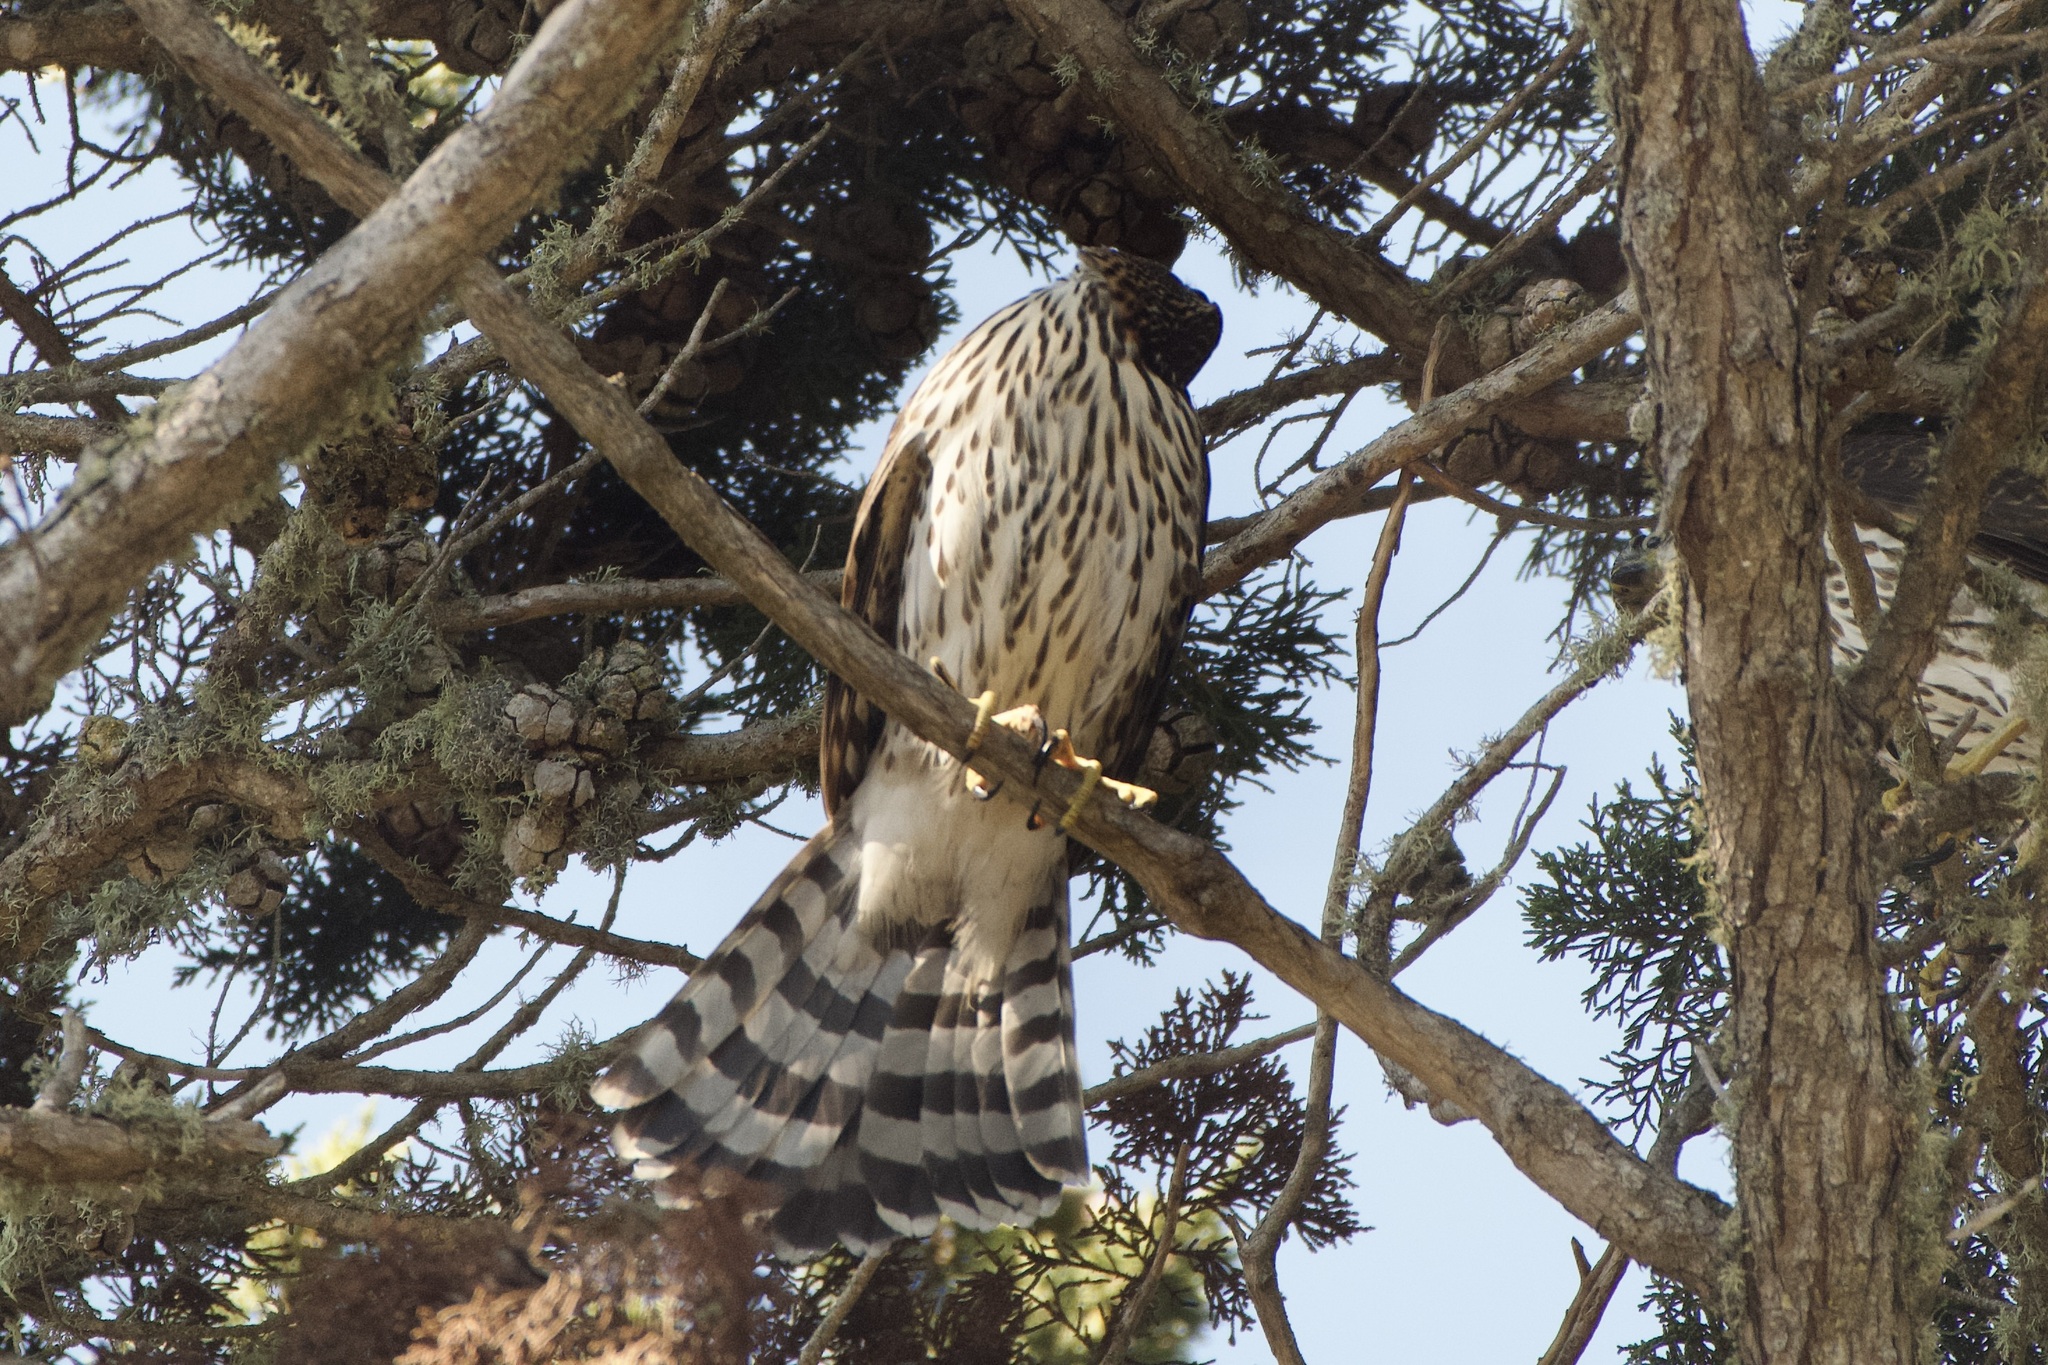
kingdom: Animalia
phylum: Chordata
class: Aves
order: Accipitriformes
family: Accipitridae
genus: Accipiter
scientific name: Accipiter cooperii
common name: Cooper's hawk
